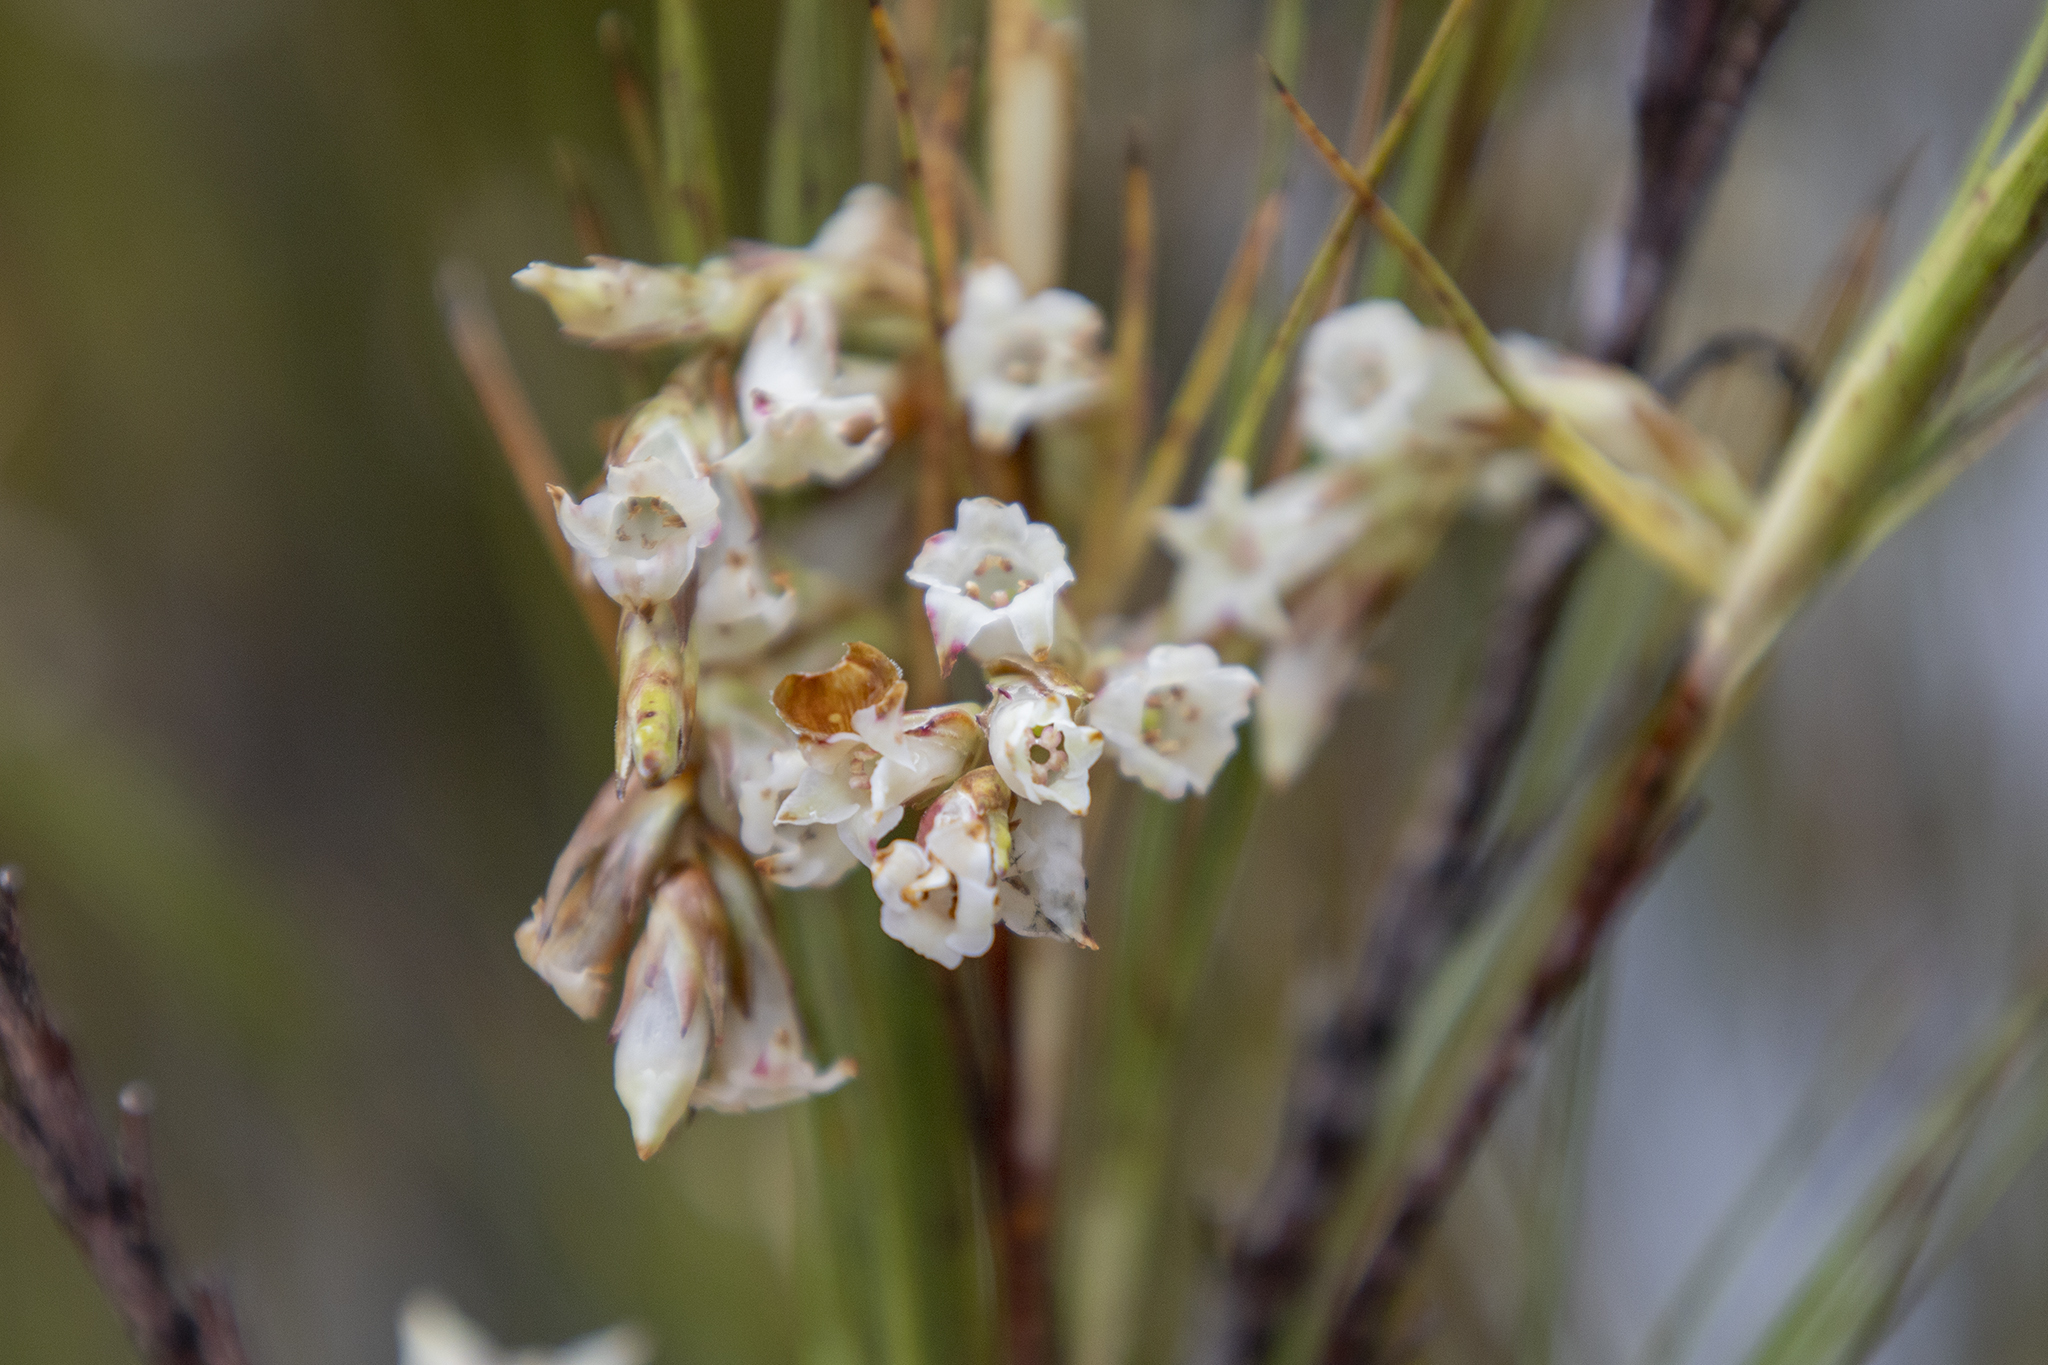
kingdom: Plantae
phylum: Tracheophyta
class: Magnoliopsida
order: Ericales
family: Ericaceae
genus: Dracophyllum
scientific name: Dracophyllum longifolium
